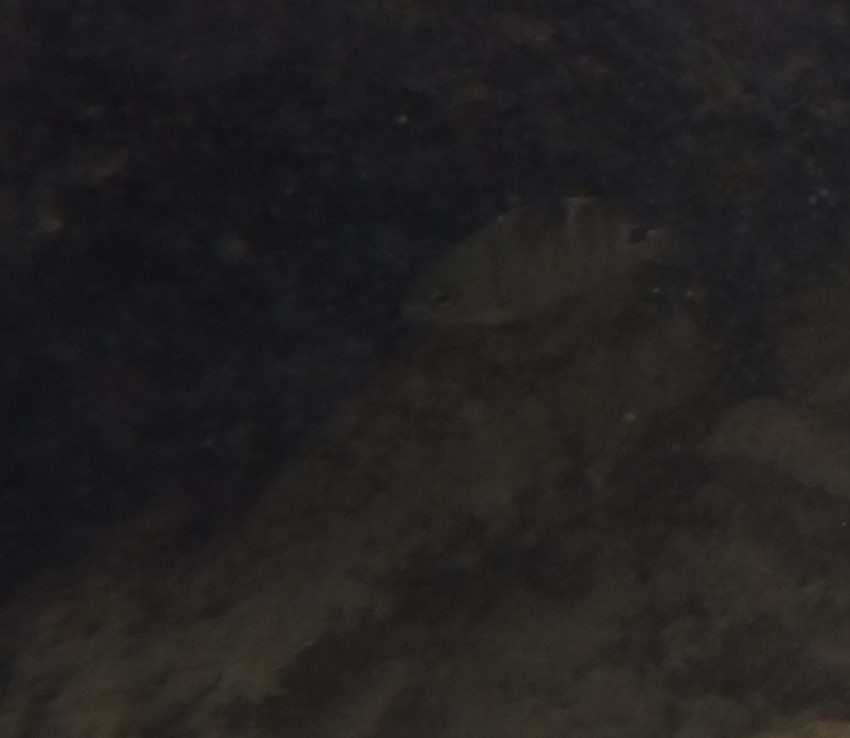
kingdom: Animalia
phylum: Chordata
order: Perciformes
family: Pomacentridae
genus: Abudefduf
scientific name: Abudefduf sordidus
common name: Blackspot sergeant
